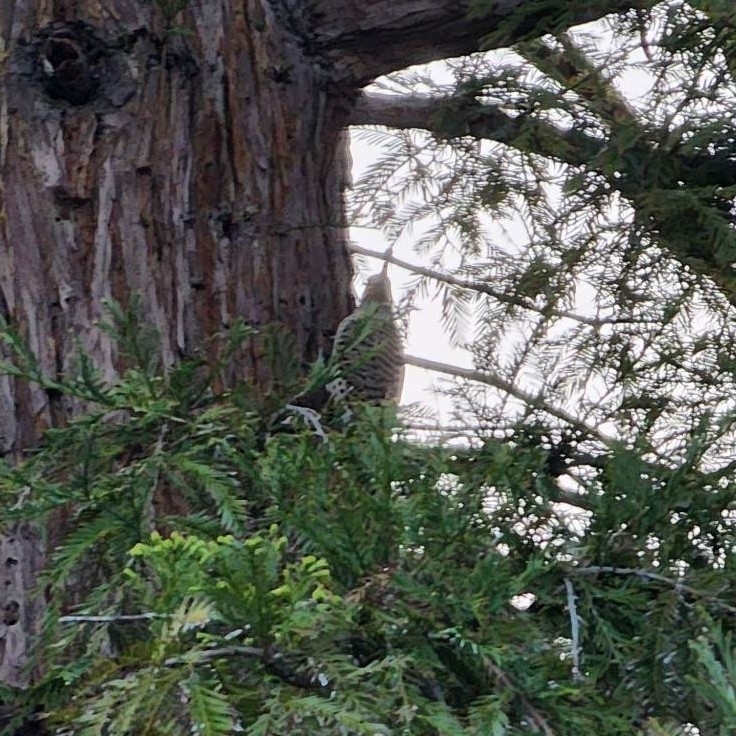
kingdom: Animalia
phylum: Chordata
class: Aves
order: Piciformes
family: Picidae
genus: Colaptes
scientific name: Colaptes auratus
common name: Northern flicker
